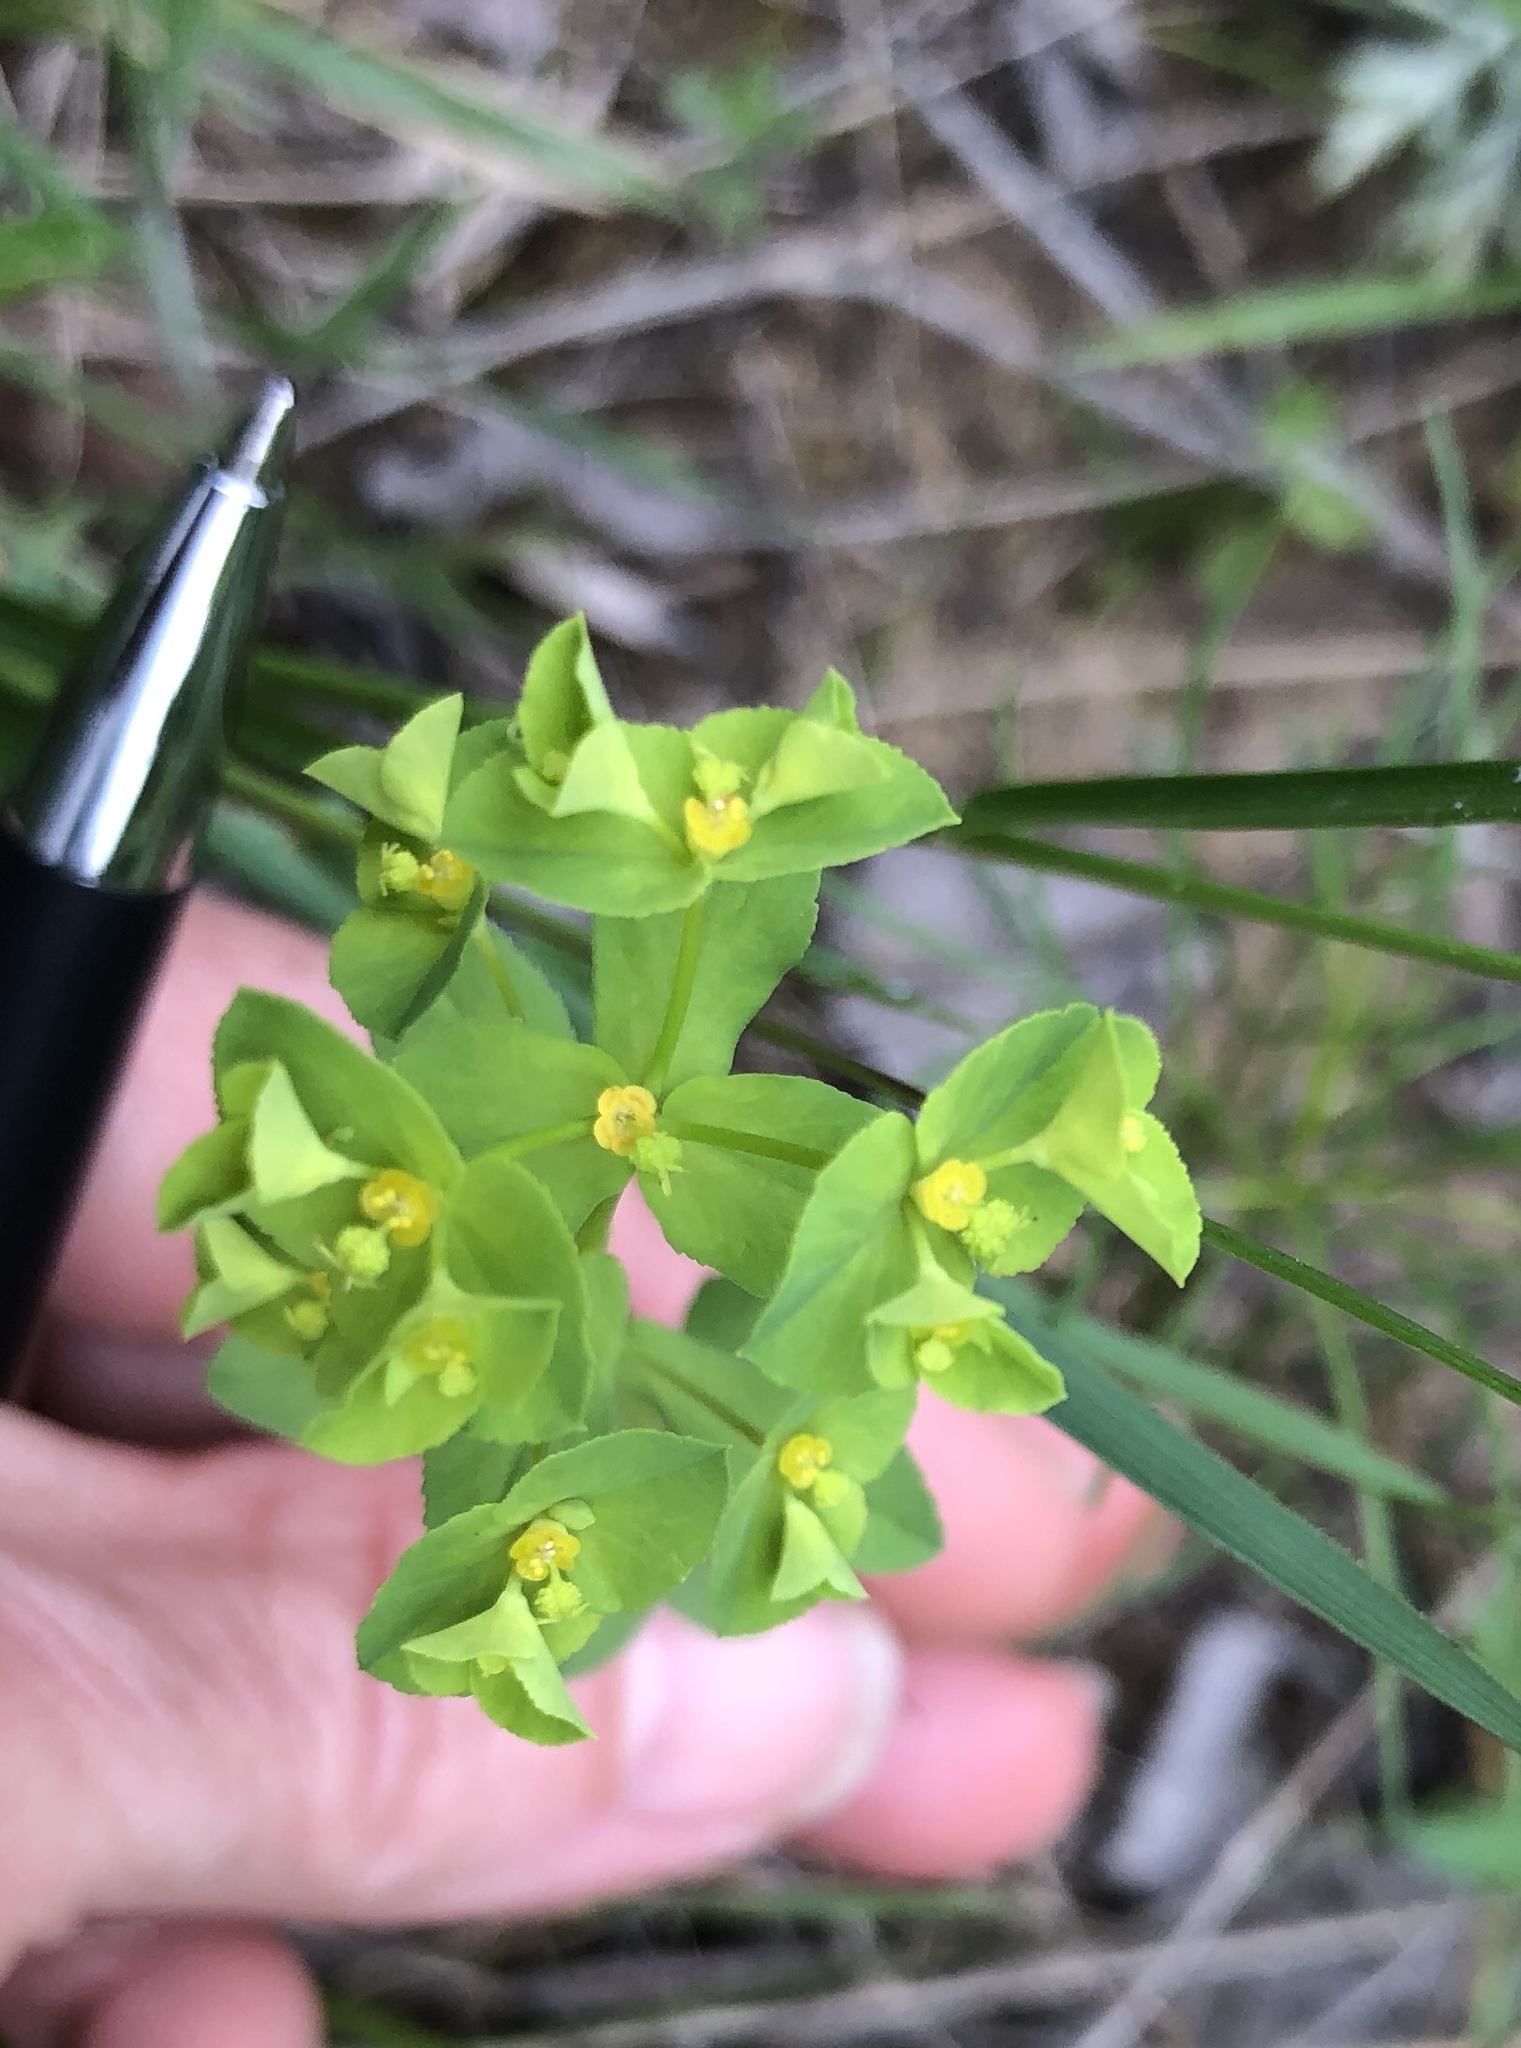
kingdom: Plantae
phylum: Tracheophyta
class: Magnoliopsida
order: Malpighiales
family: Euphorbiaceae
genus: Euphorbia
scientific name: Euphorbia spathulata
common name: Blunt spurge
